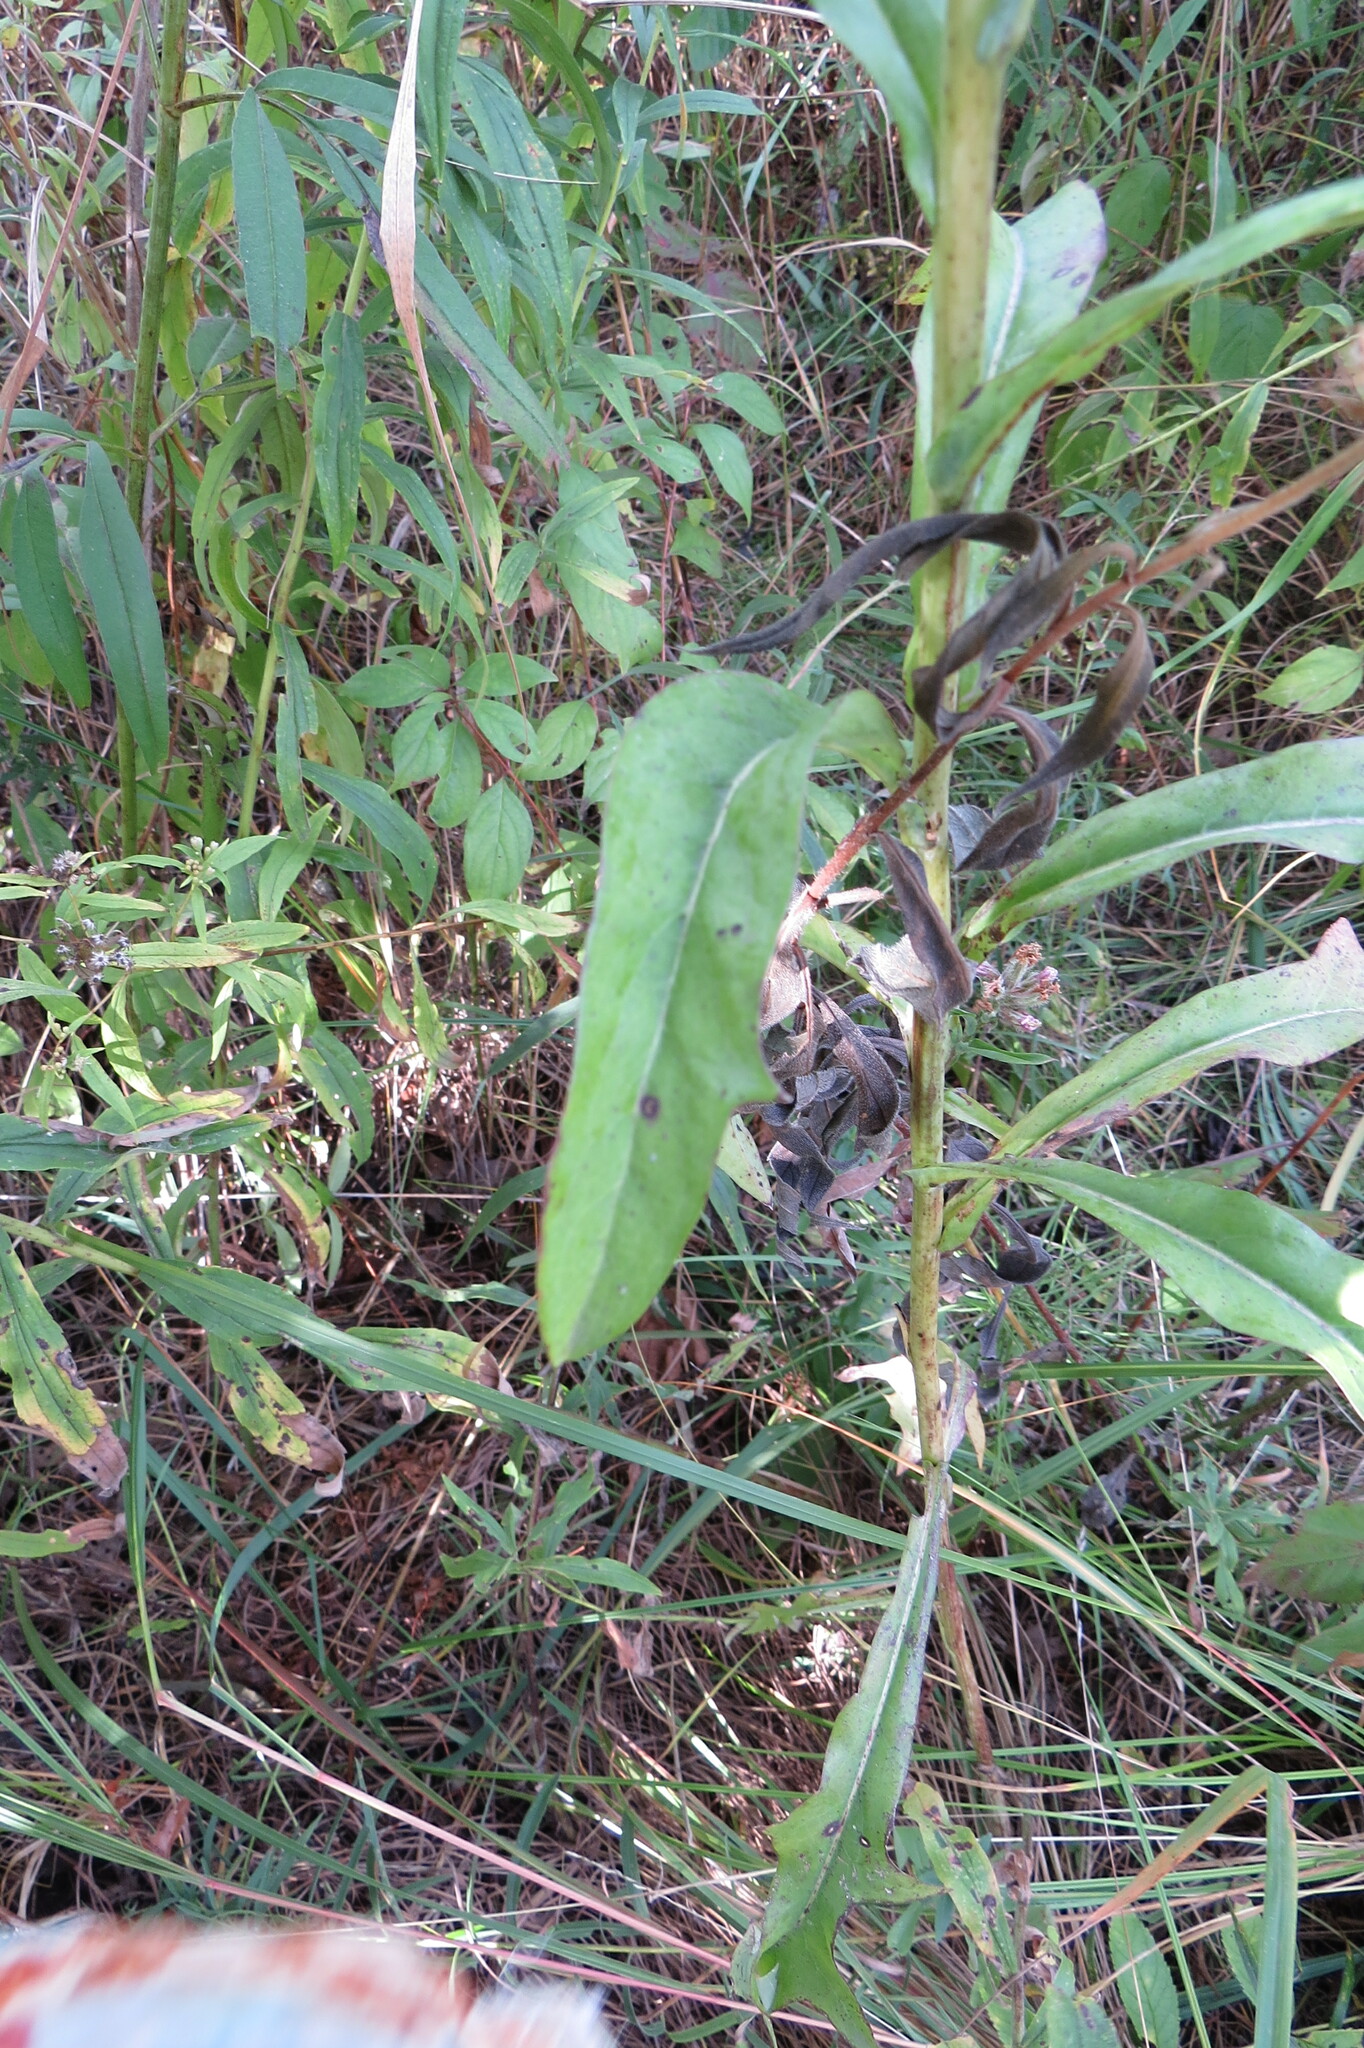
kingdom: Plantae
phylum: Tracheophyta
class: Magnoliopsida
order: Asterales
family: Asteraceae
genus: Cirsium
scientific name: Cirsium muticum
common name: Dunce-nettle
